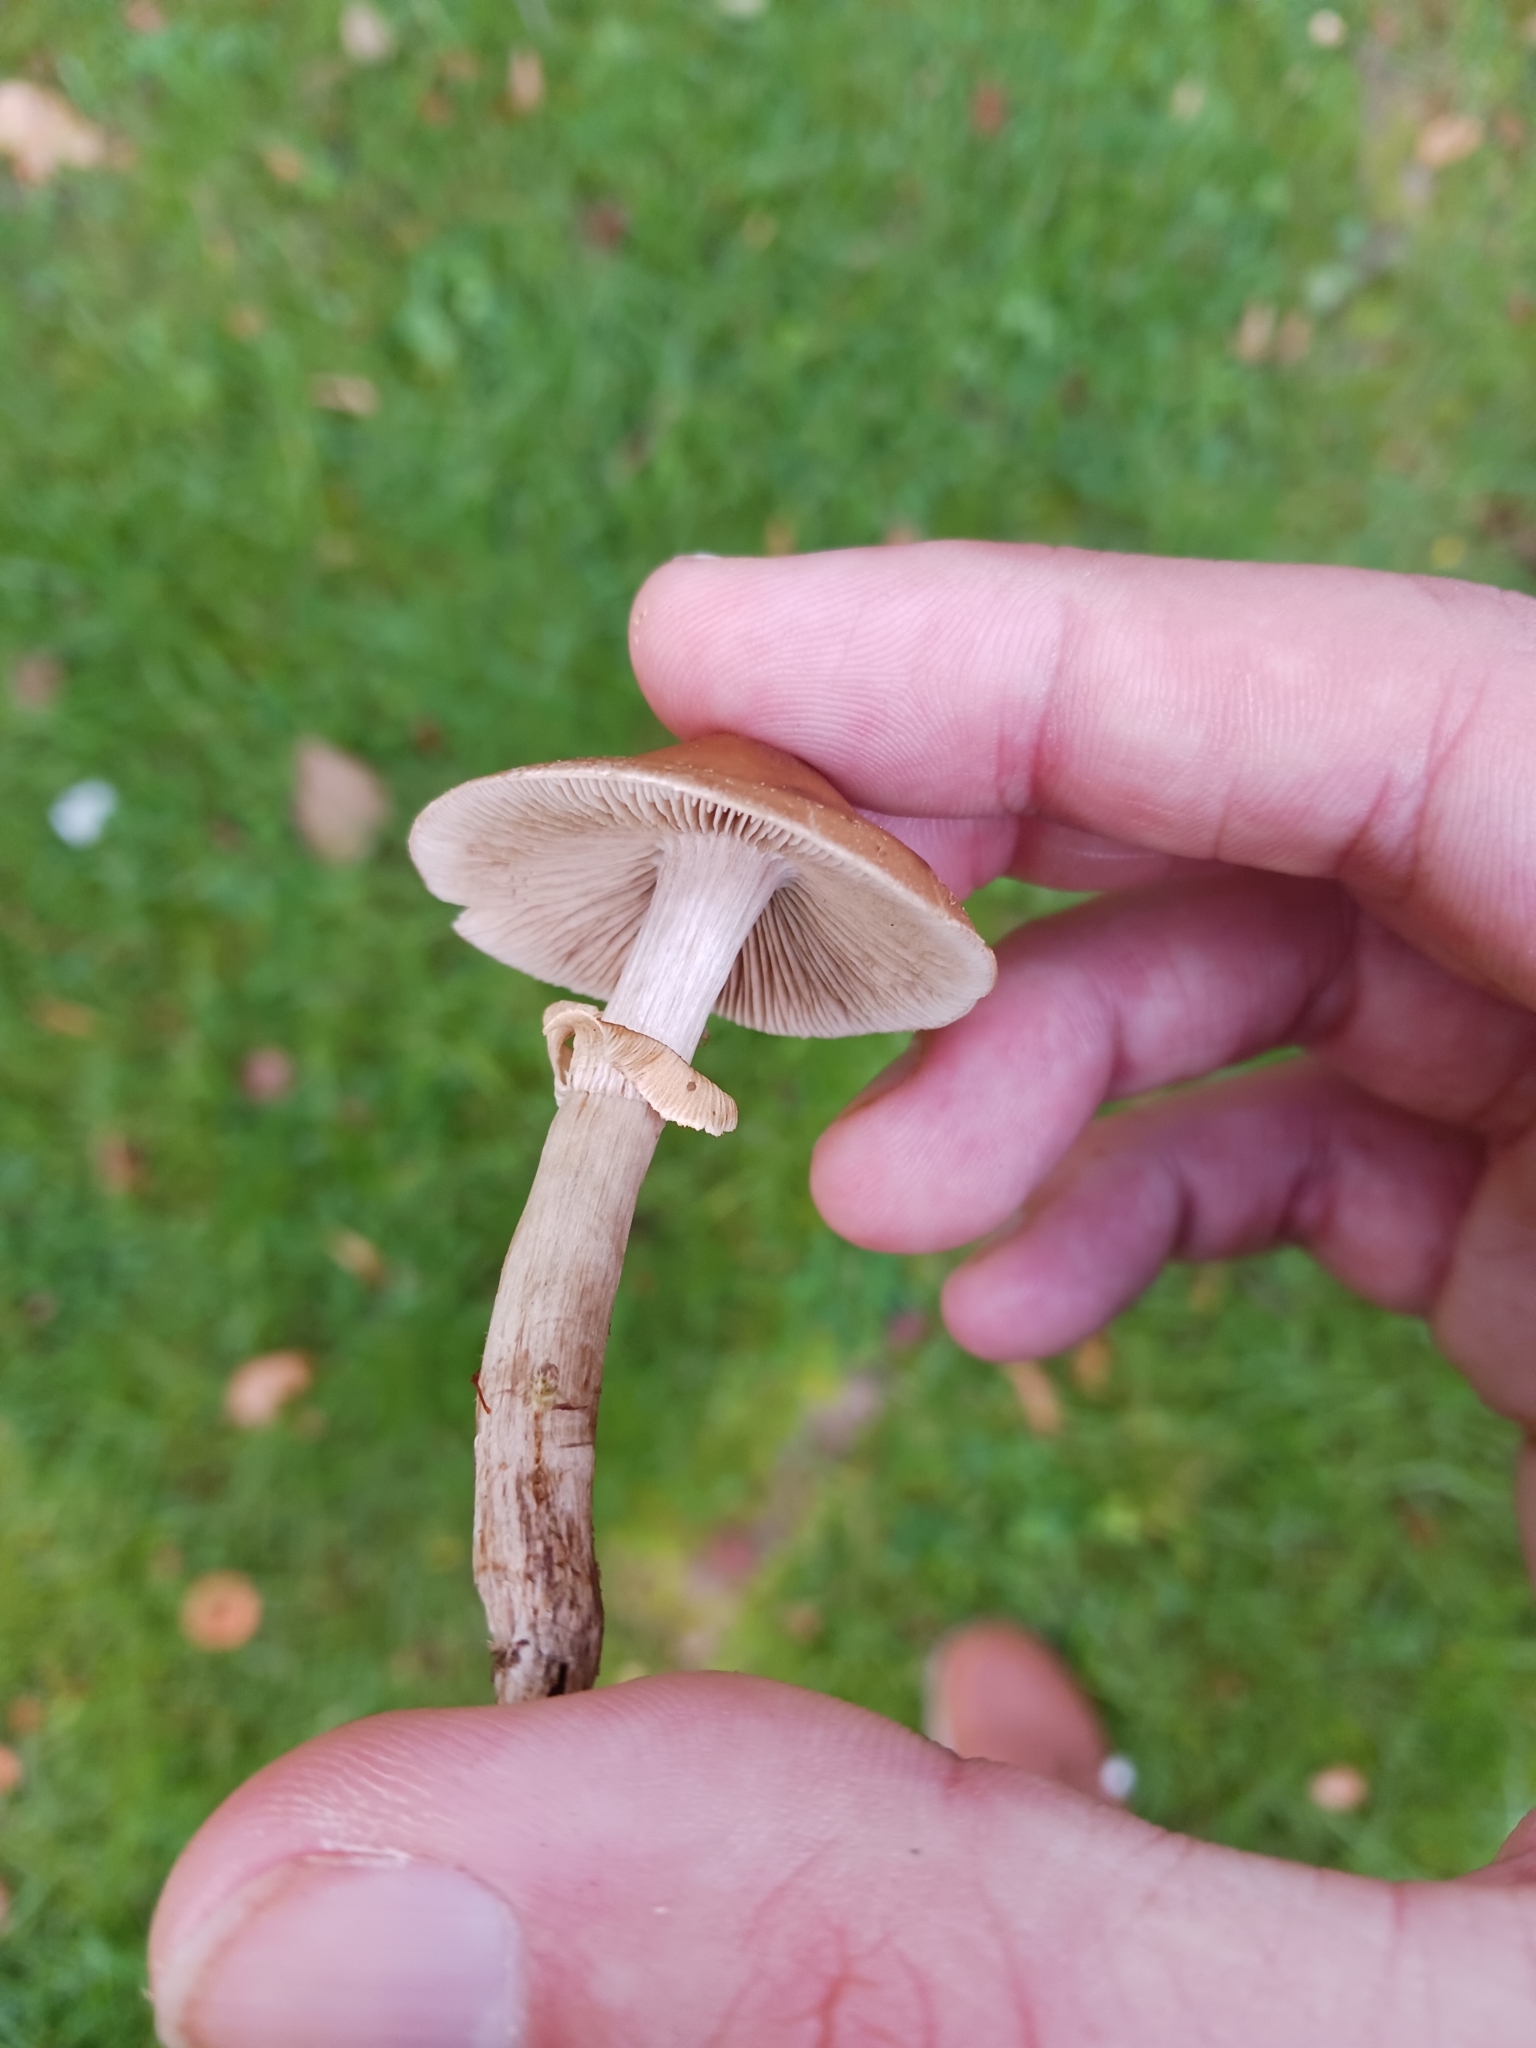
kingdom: Fungi
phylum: Basidiomycota
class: Agaricomycetes
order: Agaricales
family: Tubariaceae
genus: Cyclocybe
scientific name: Cyclocybe erebia
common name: Dark fieldcap
